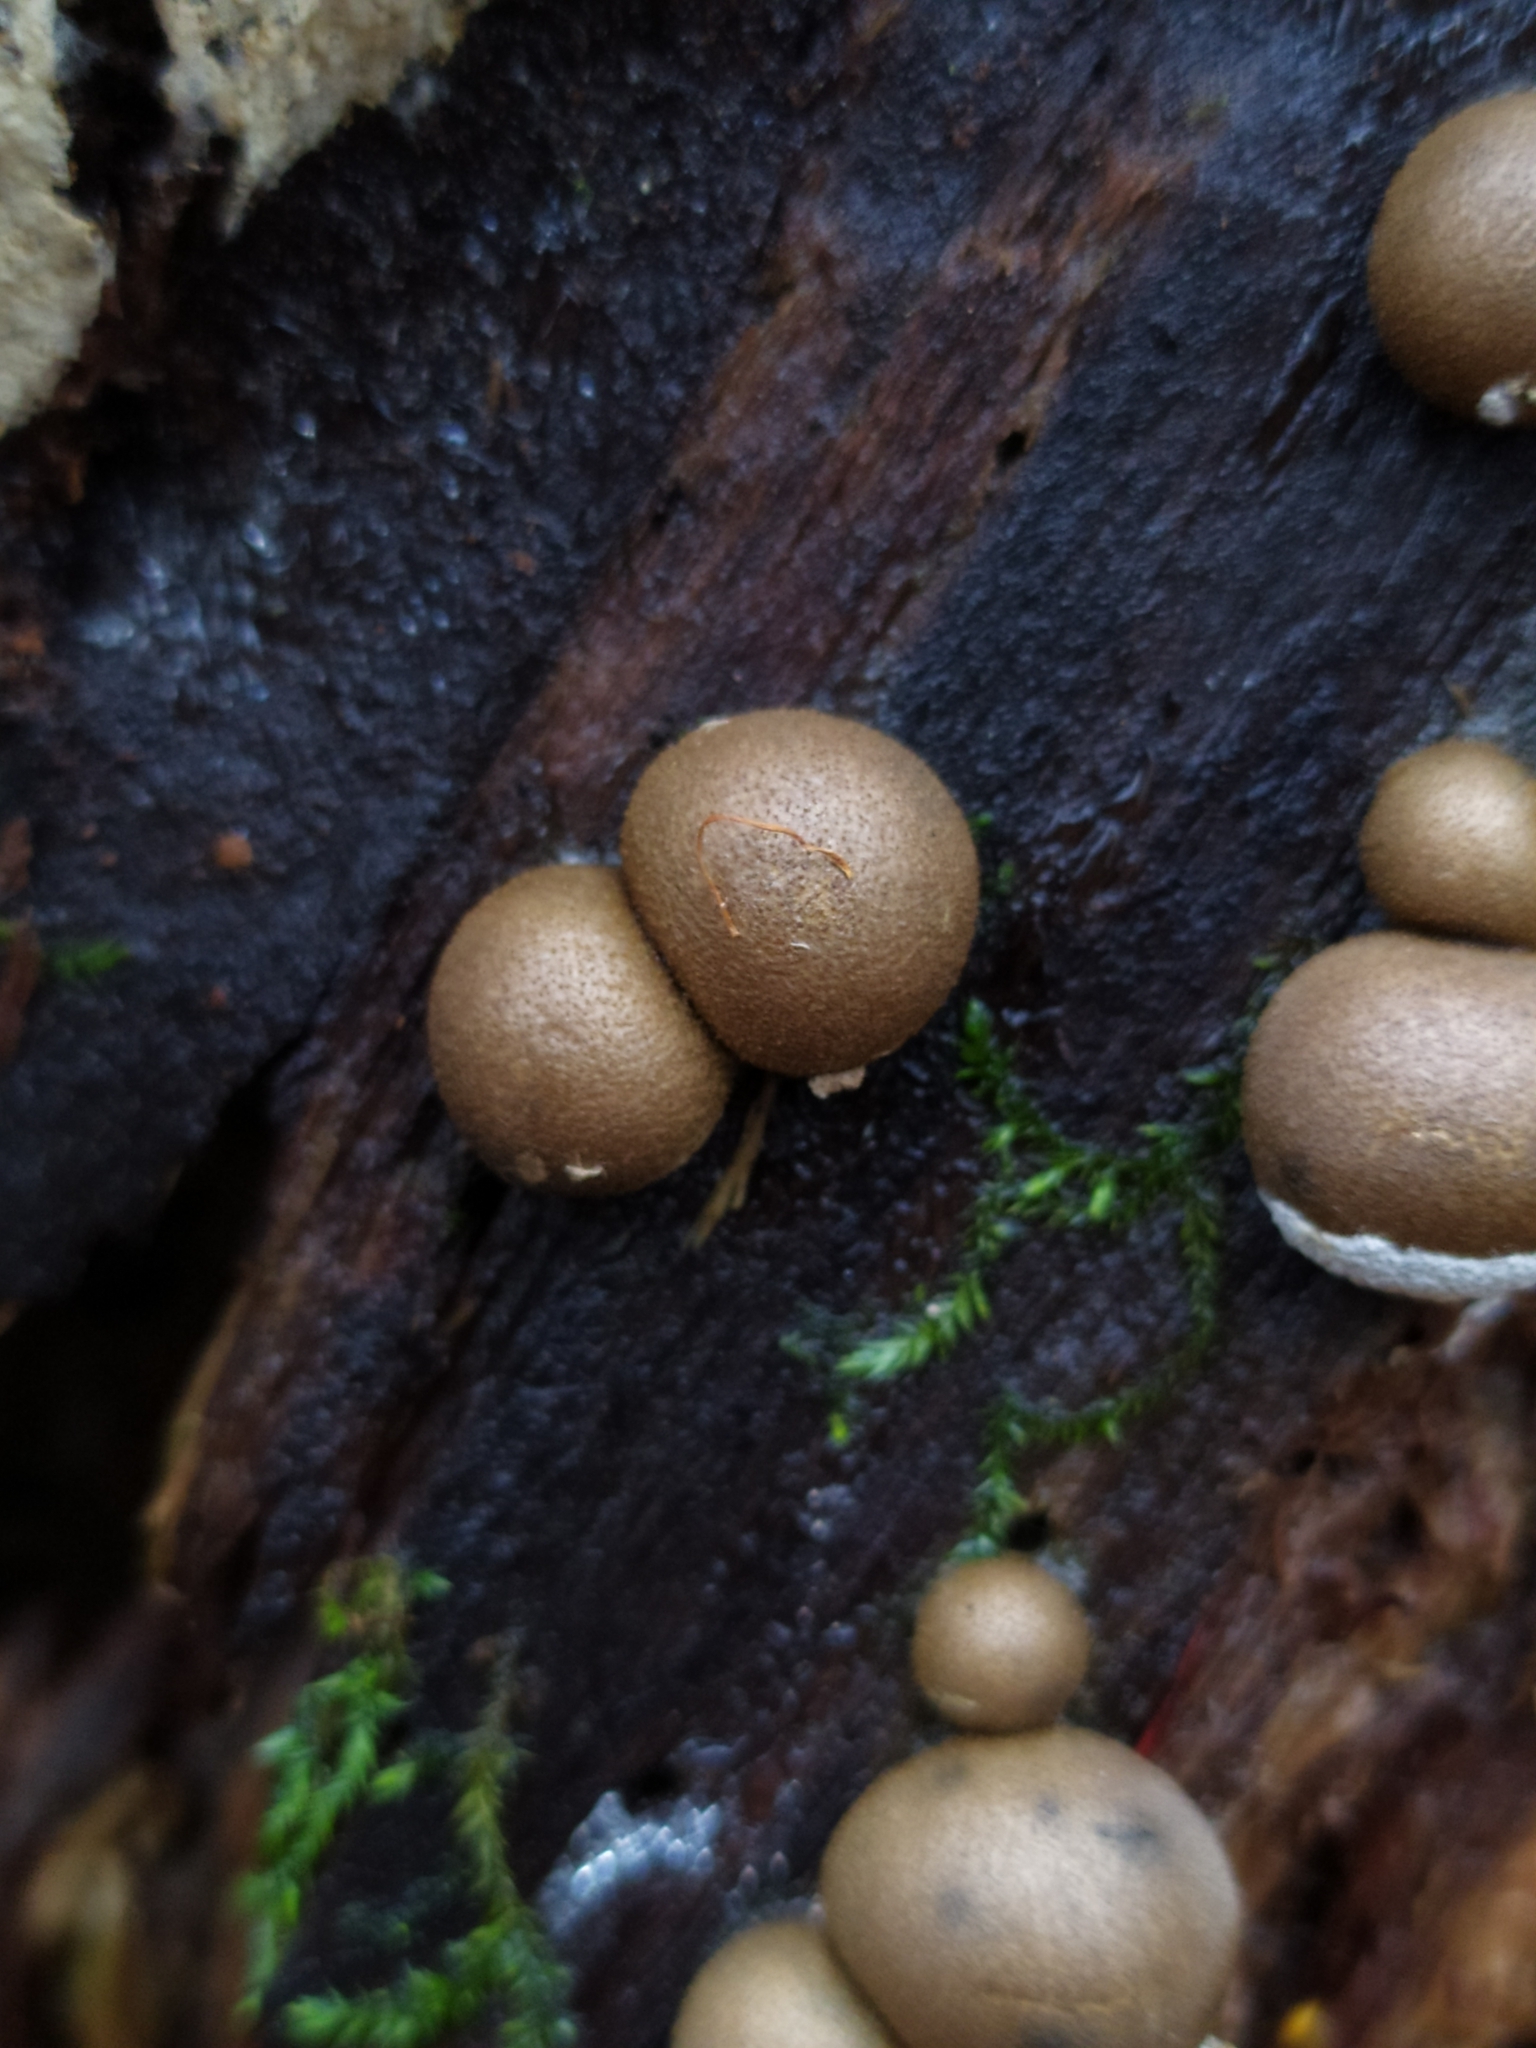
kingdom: Protozoa
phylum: Mycetozoa
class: Myxomycetes
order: Cribrariales
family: Tubiferaceae
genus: Lycogala
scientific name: Lycogala epidendrum
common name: Wolf's milk
